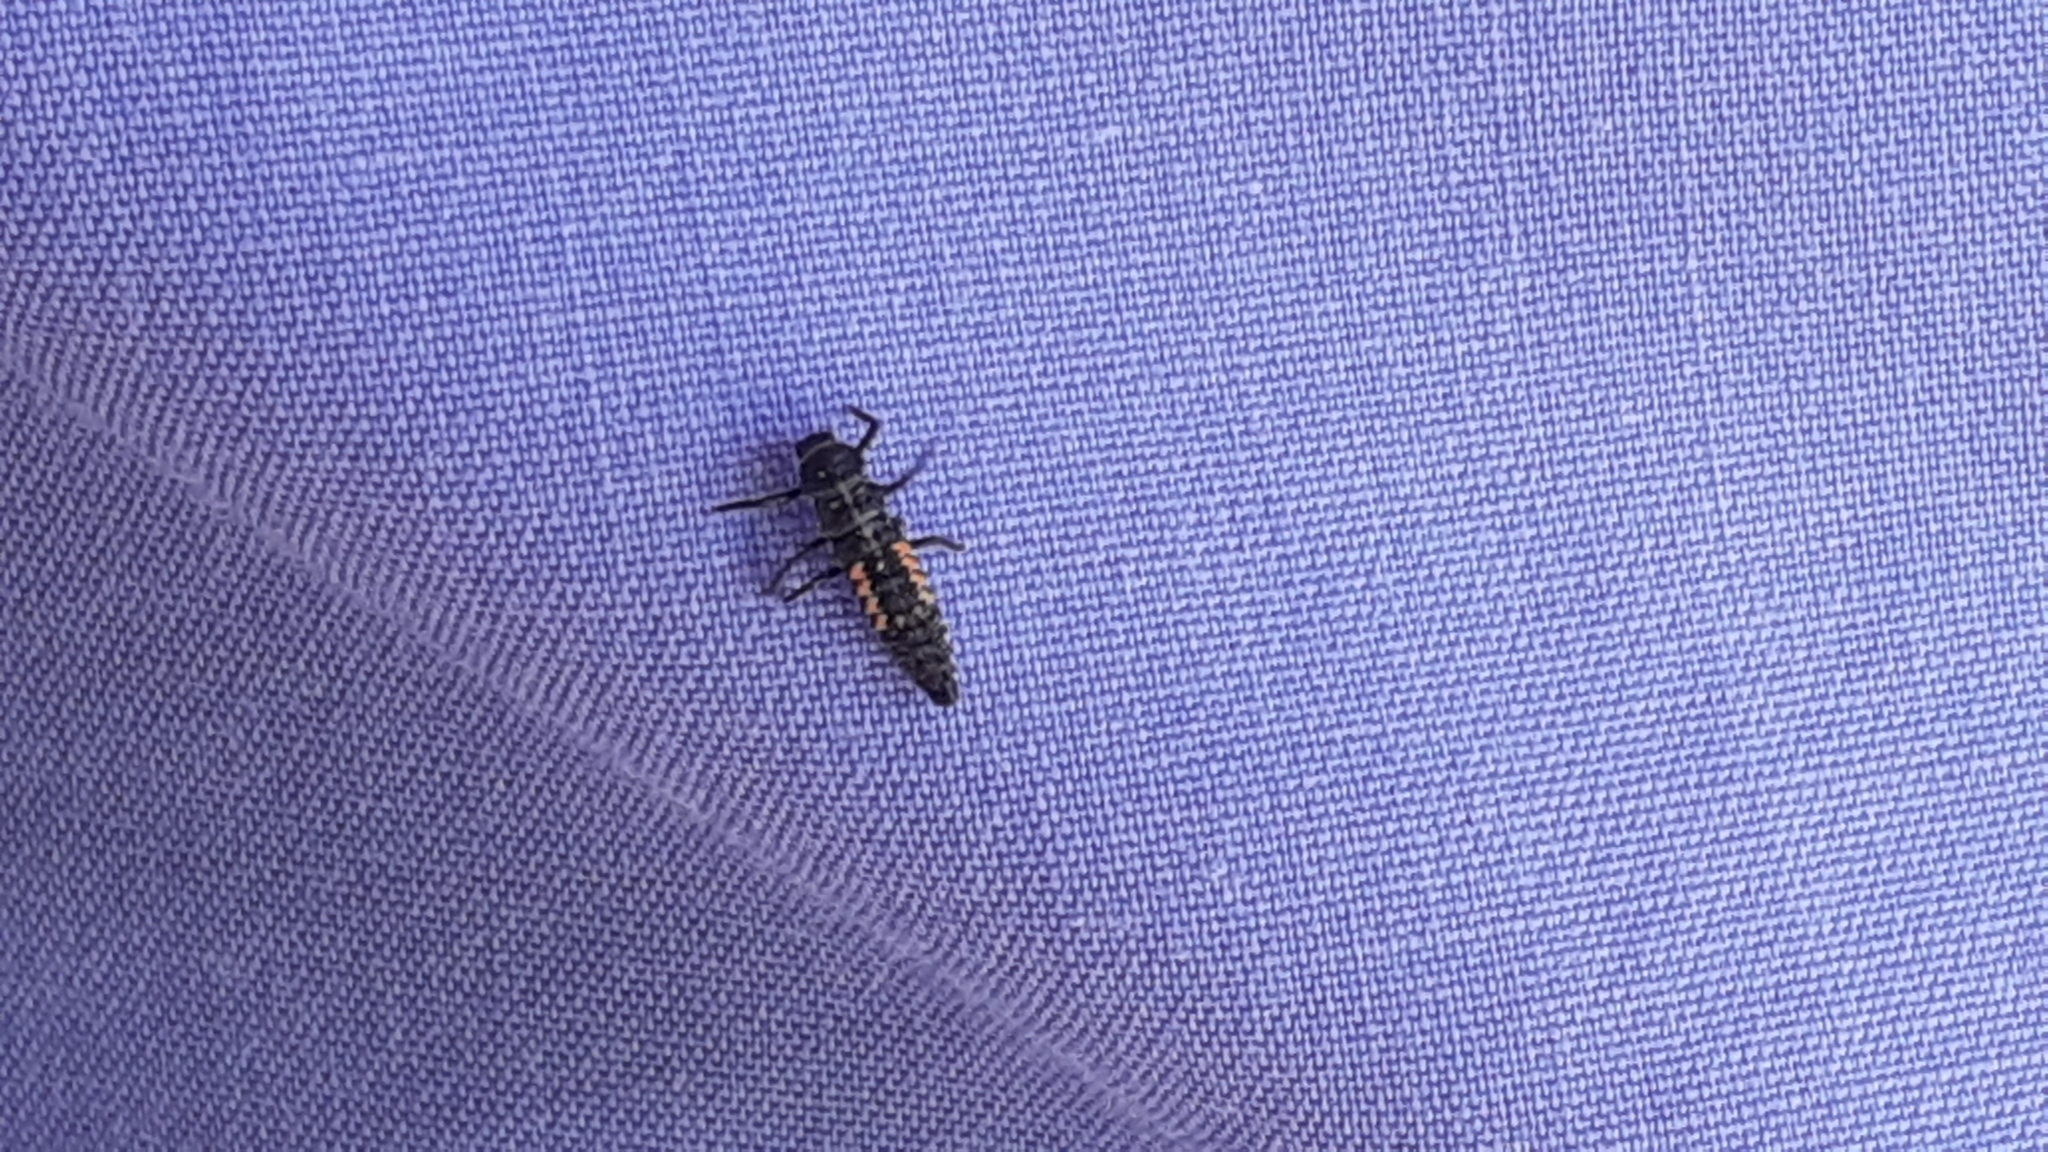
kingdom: Animalia
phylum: Arthropoda
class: Insecta
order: Coleoptera
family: Coccinellidae
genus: Harmonia
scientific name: Harmonia axyridis
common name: Harlequin ladybird
